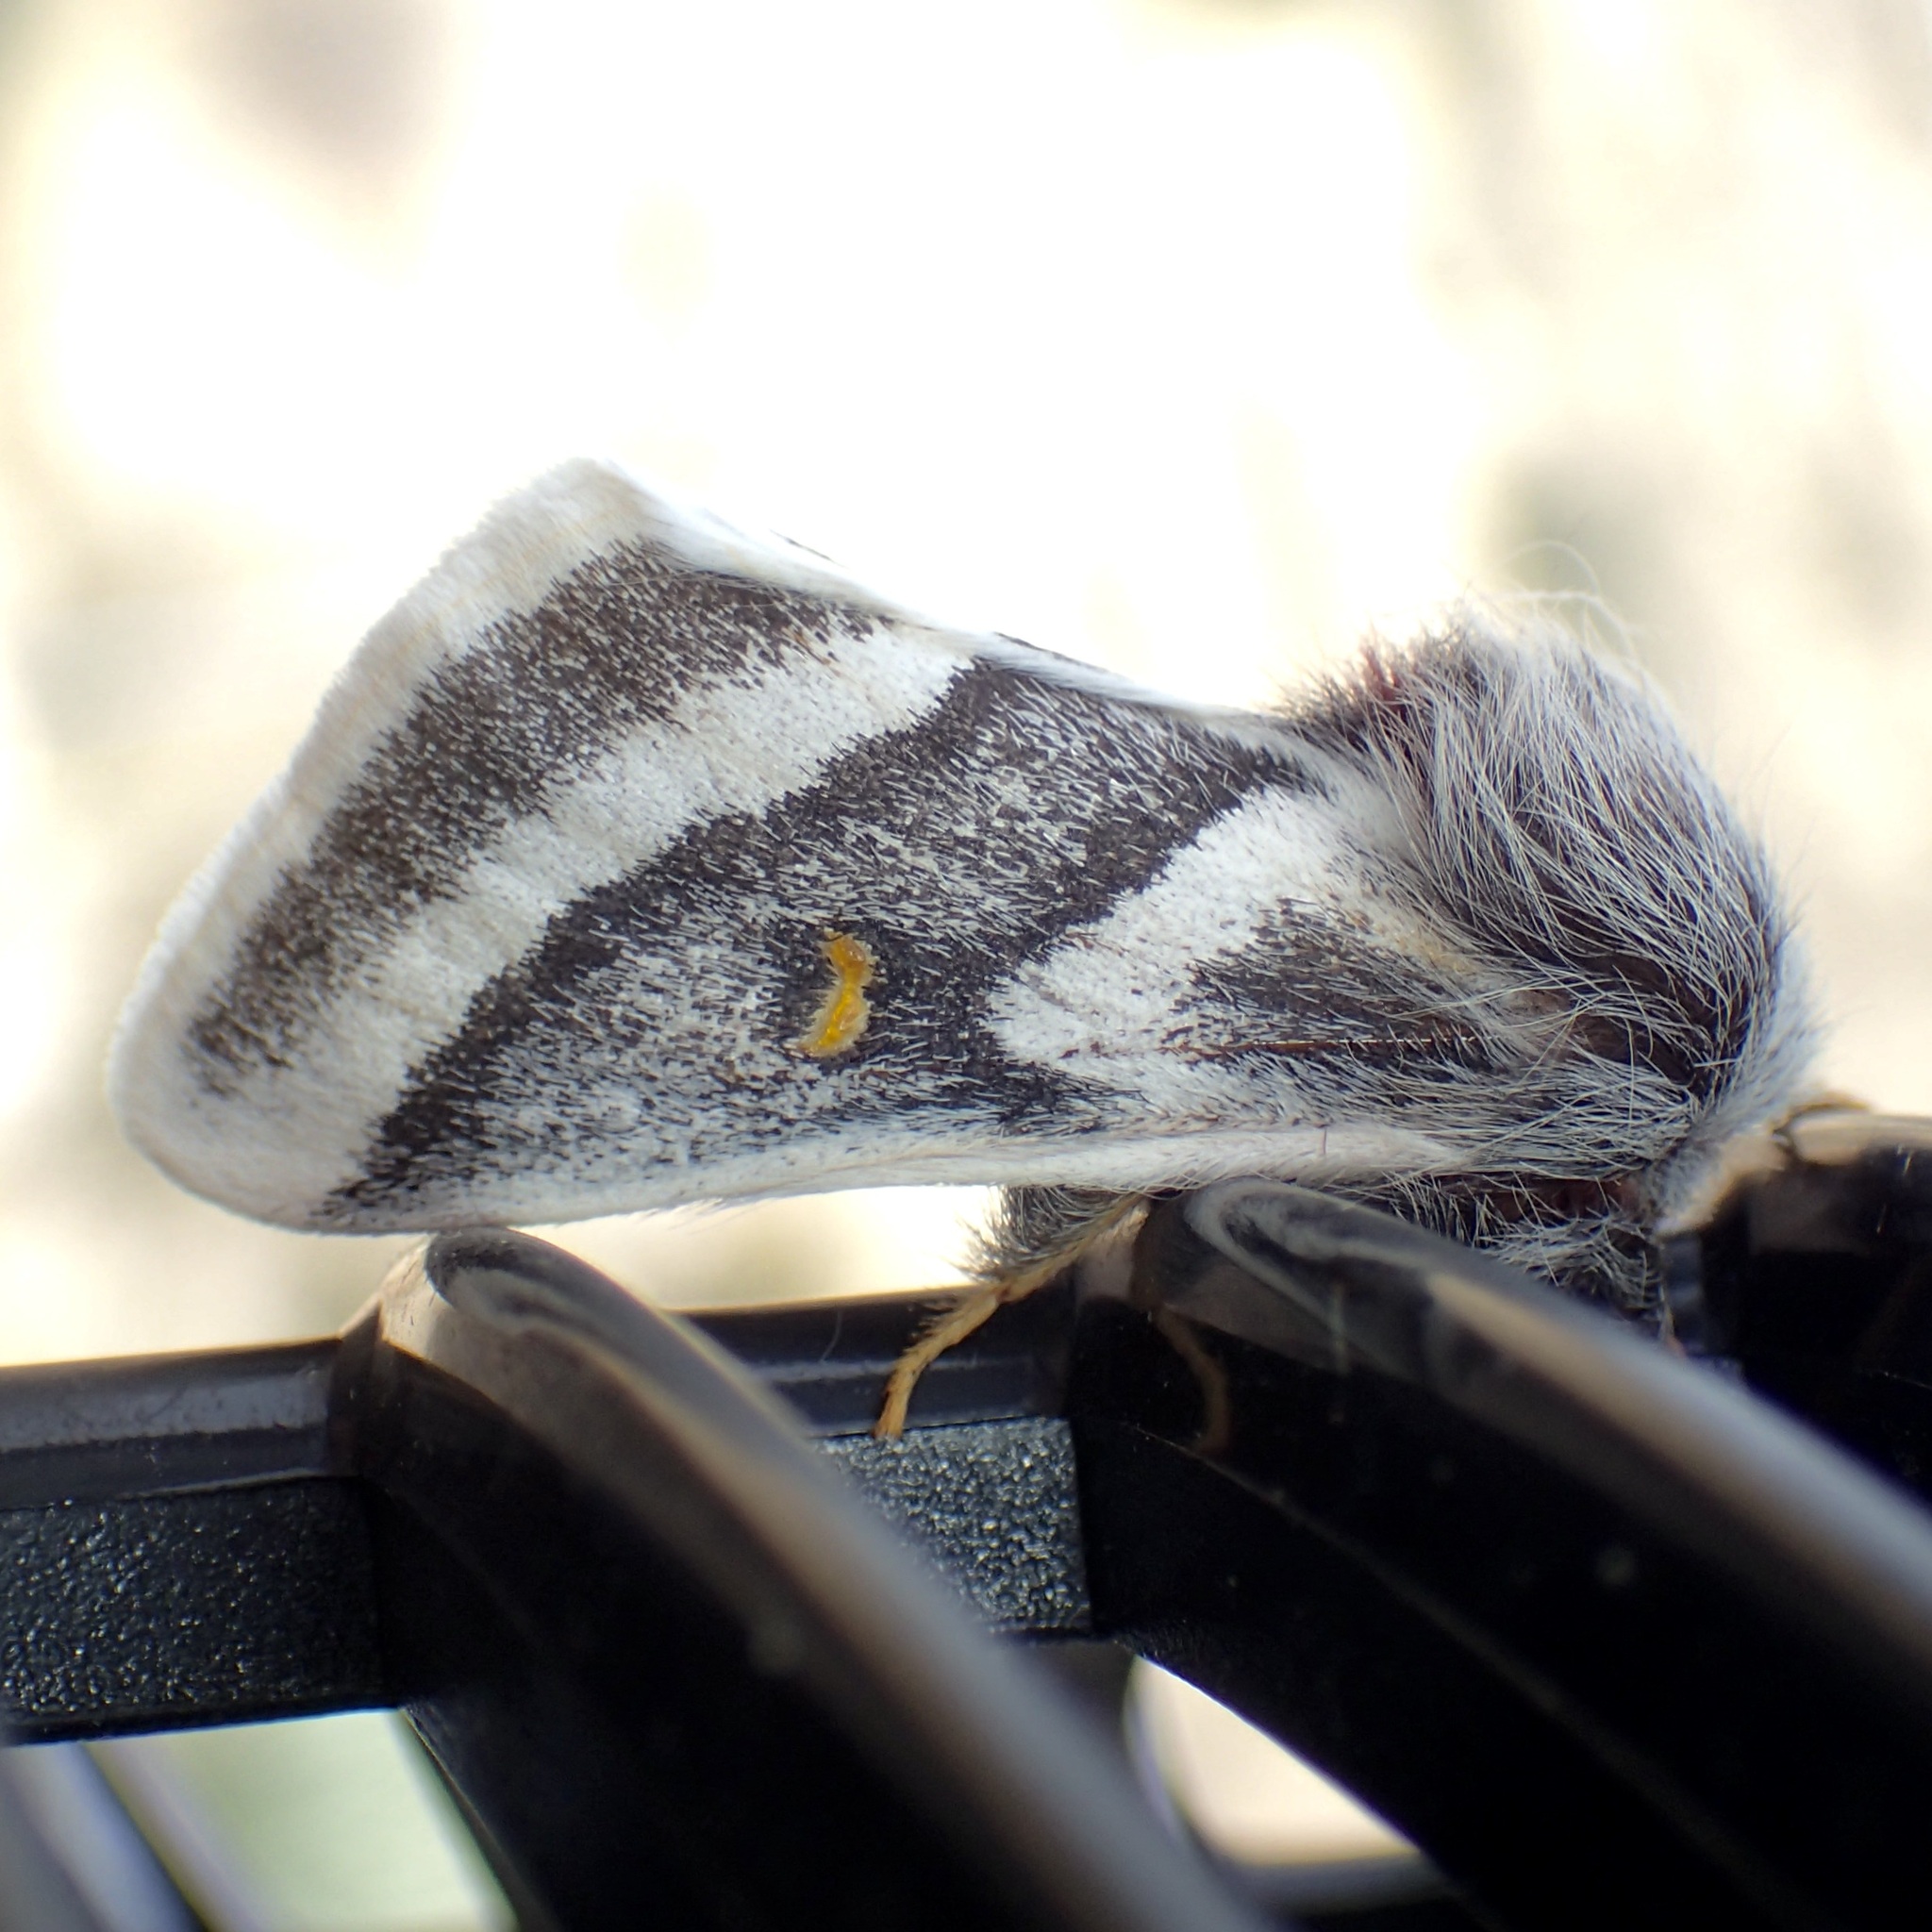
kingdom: Animalia
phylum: Arthropoda
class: Insecta
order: Lepidoptera
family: Saturniidae
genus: Hemileuca
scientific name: Hemileuca tricolor
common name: Tricolor buckmoth
